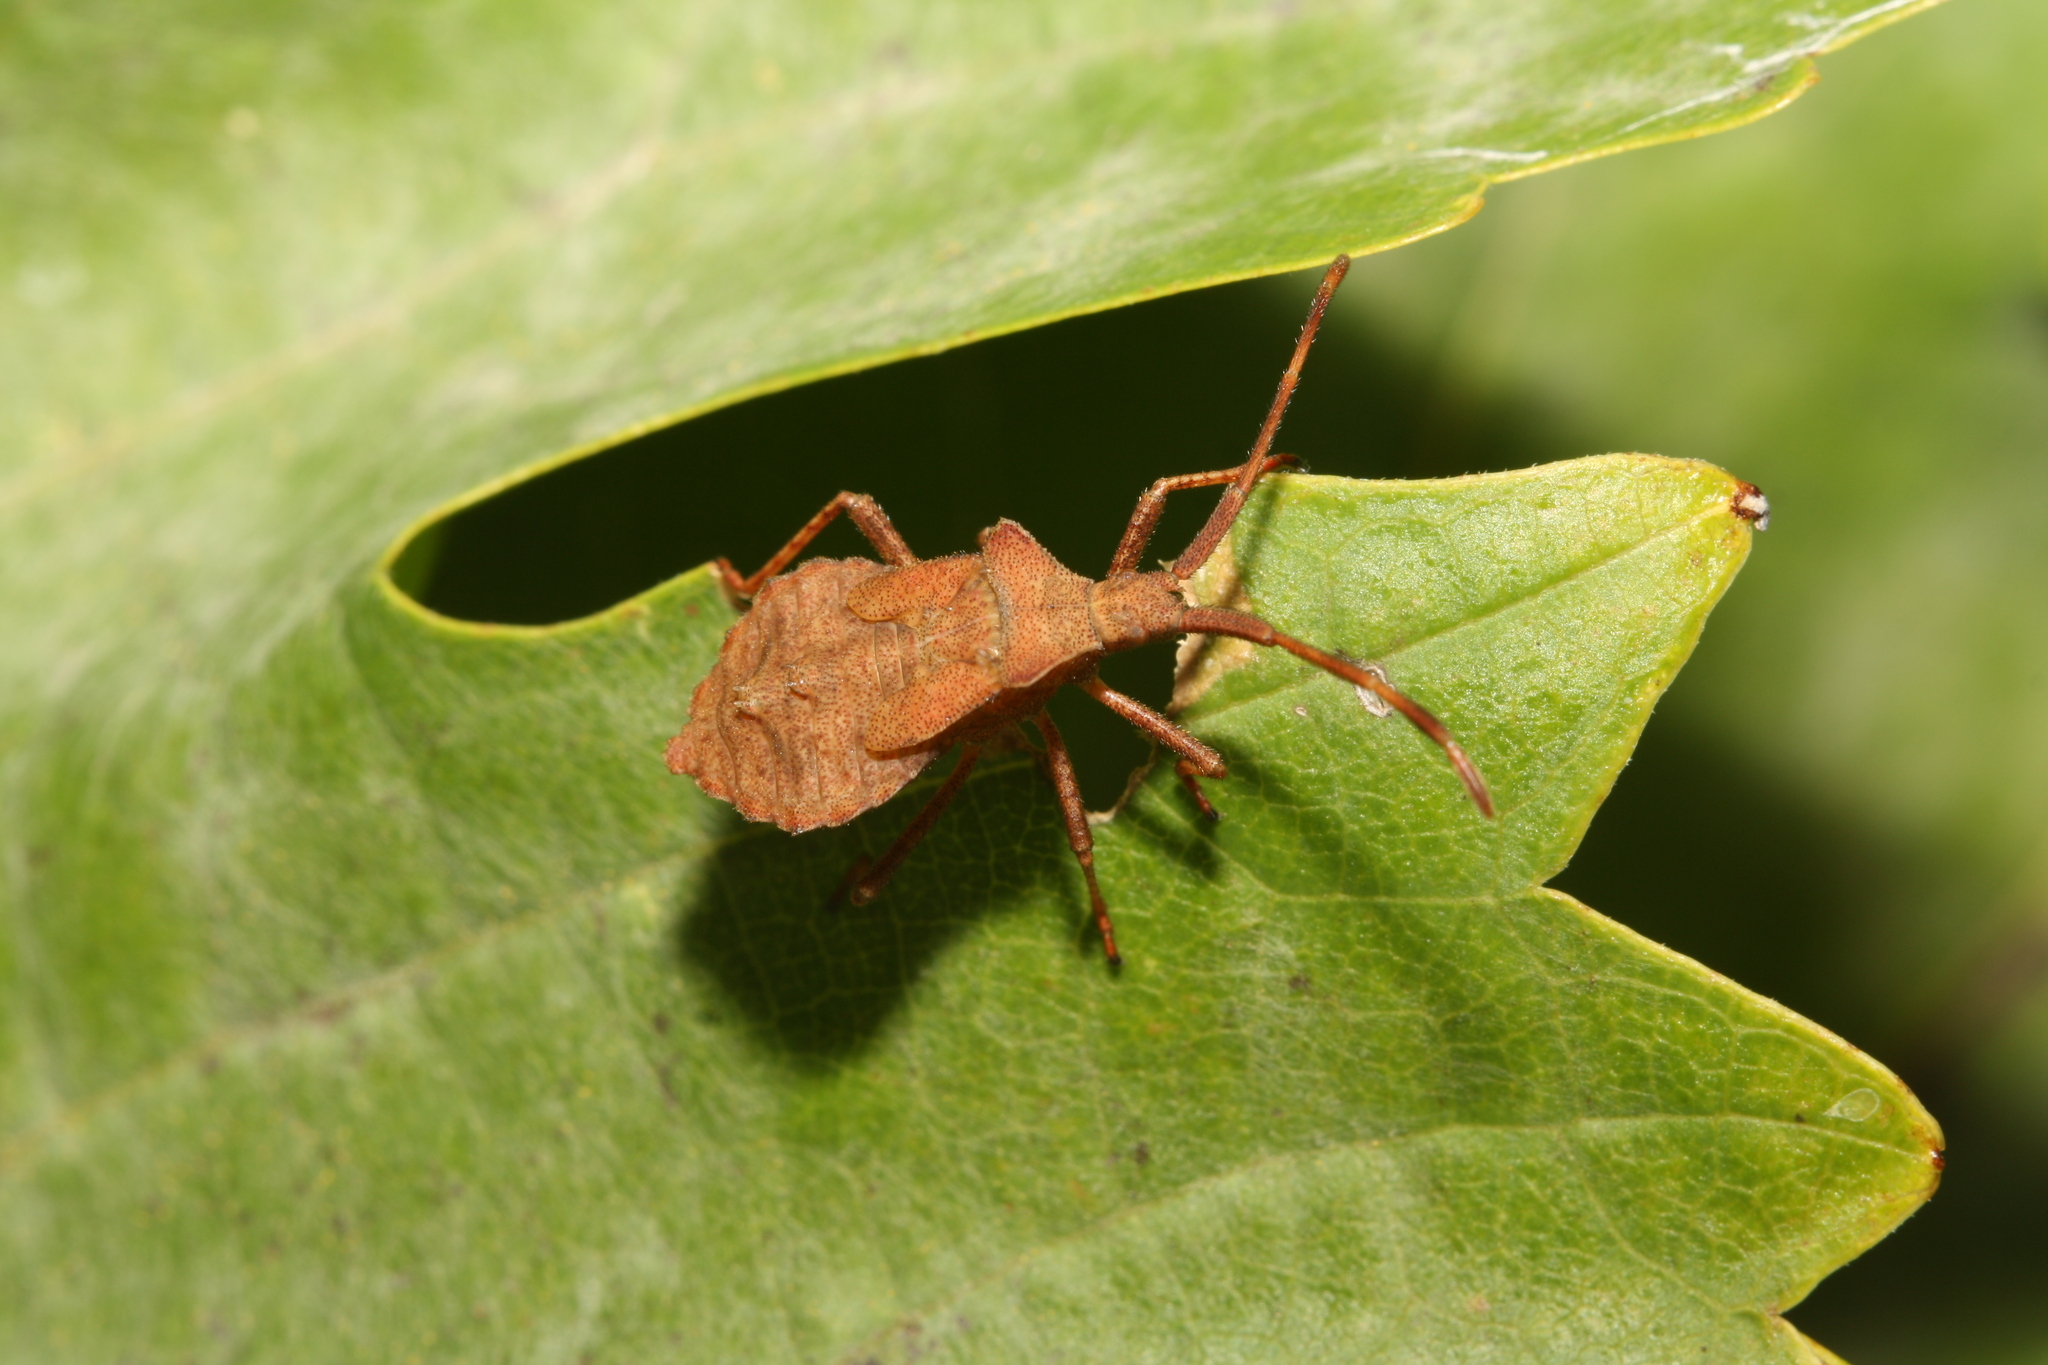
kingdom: Animalia
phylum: Arthropoda
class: Insecta
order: Hemiptera
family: Coreidae
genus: Coreus
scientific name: Coreus marginatus
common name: Dock bug
